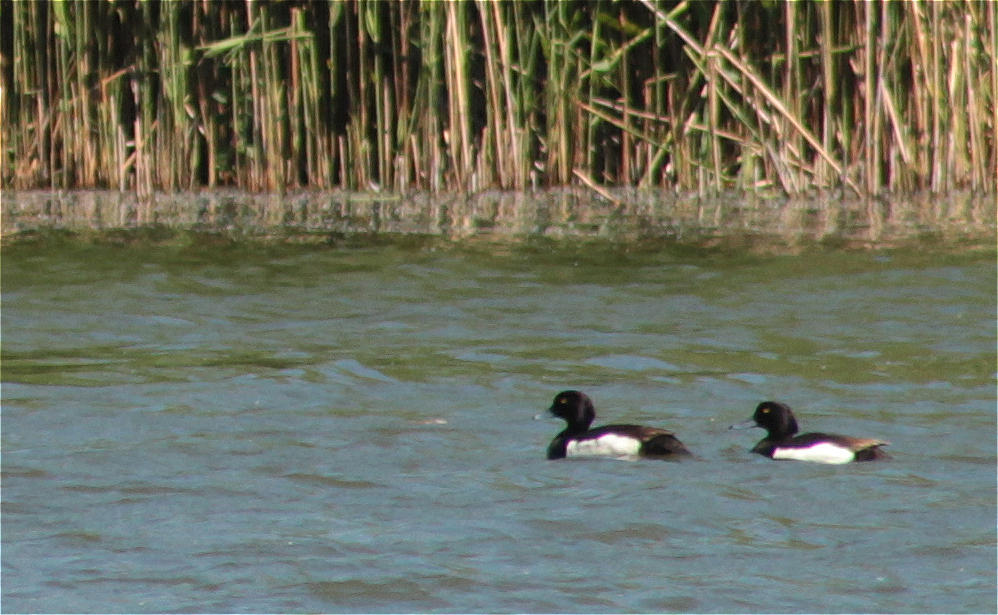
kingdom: Animalia
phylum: Chordata
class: Aves
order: Anseriformes
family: Anatidae
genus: Aythya
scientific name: Aythya fuligula
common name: Tufted duck
